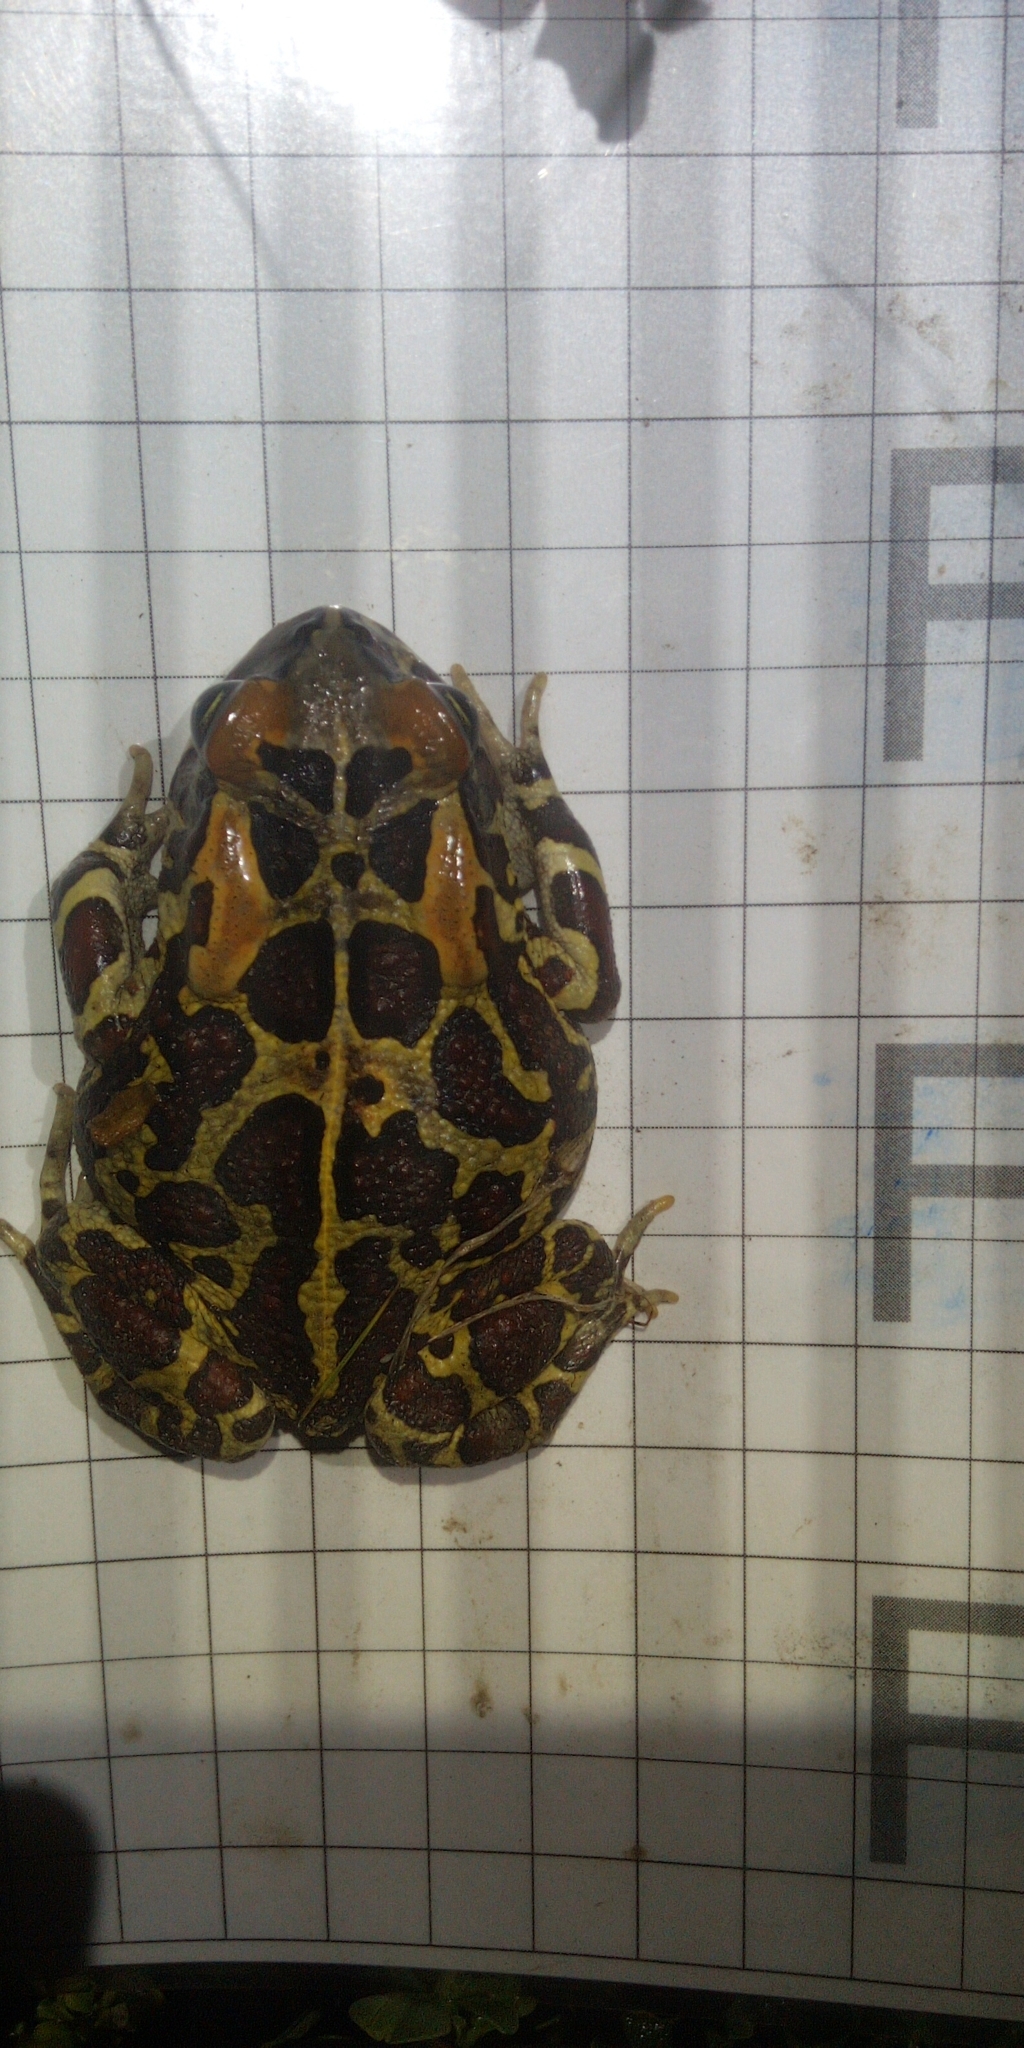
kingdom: Animalia
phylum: Chordata
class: Amphibia
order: Anura
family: Bufonidae
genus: Sclerophrys
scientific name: Sclerophrys pantherina
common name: Panther toad
